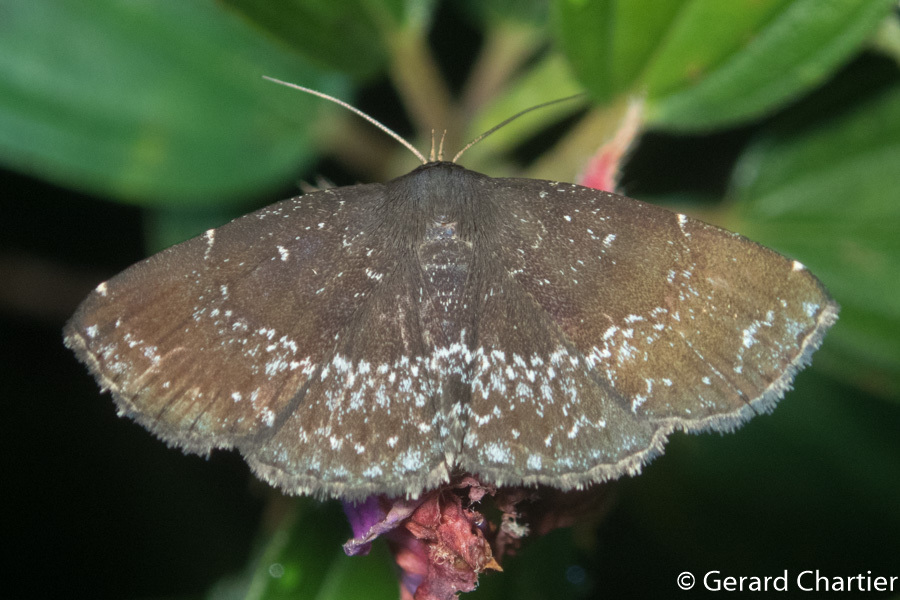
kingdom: Animalia
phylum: Arthropoda
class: Insecta
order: Lepidoptera
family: Erebidae
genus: Adrapsa
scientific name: Adrapsa geometroides
